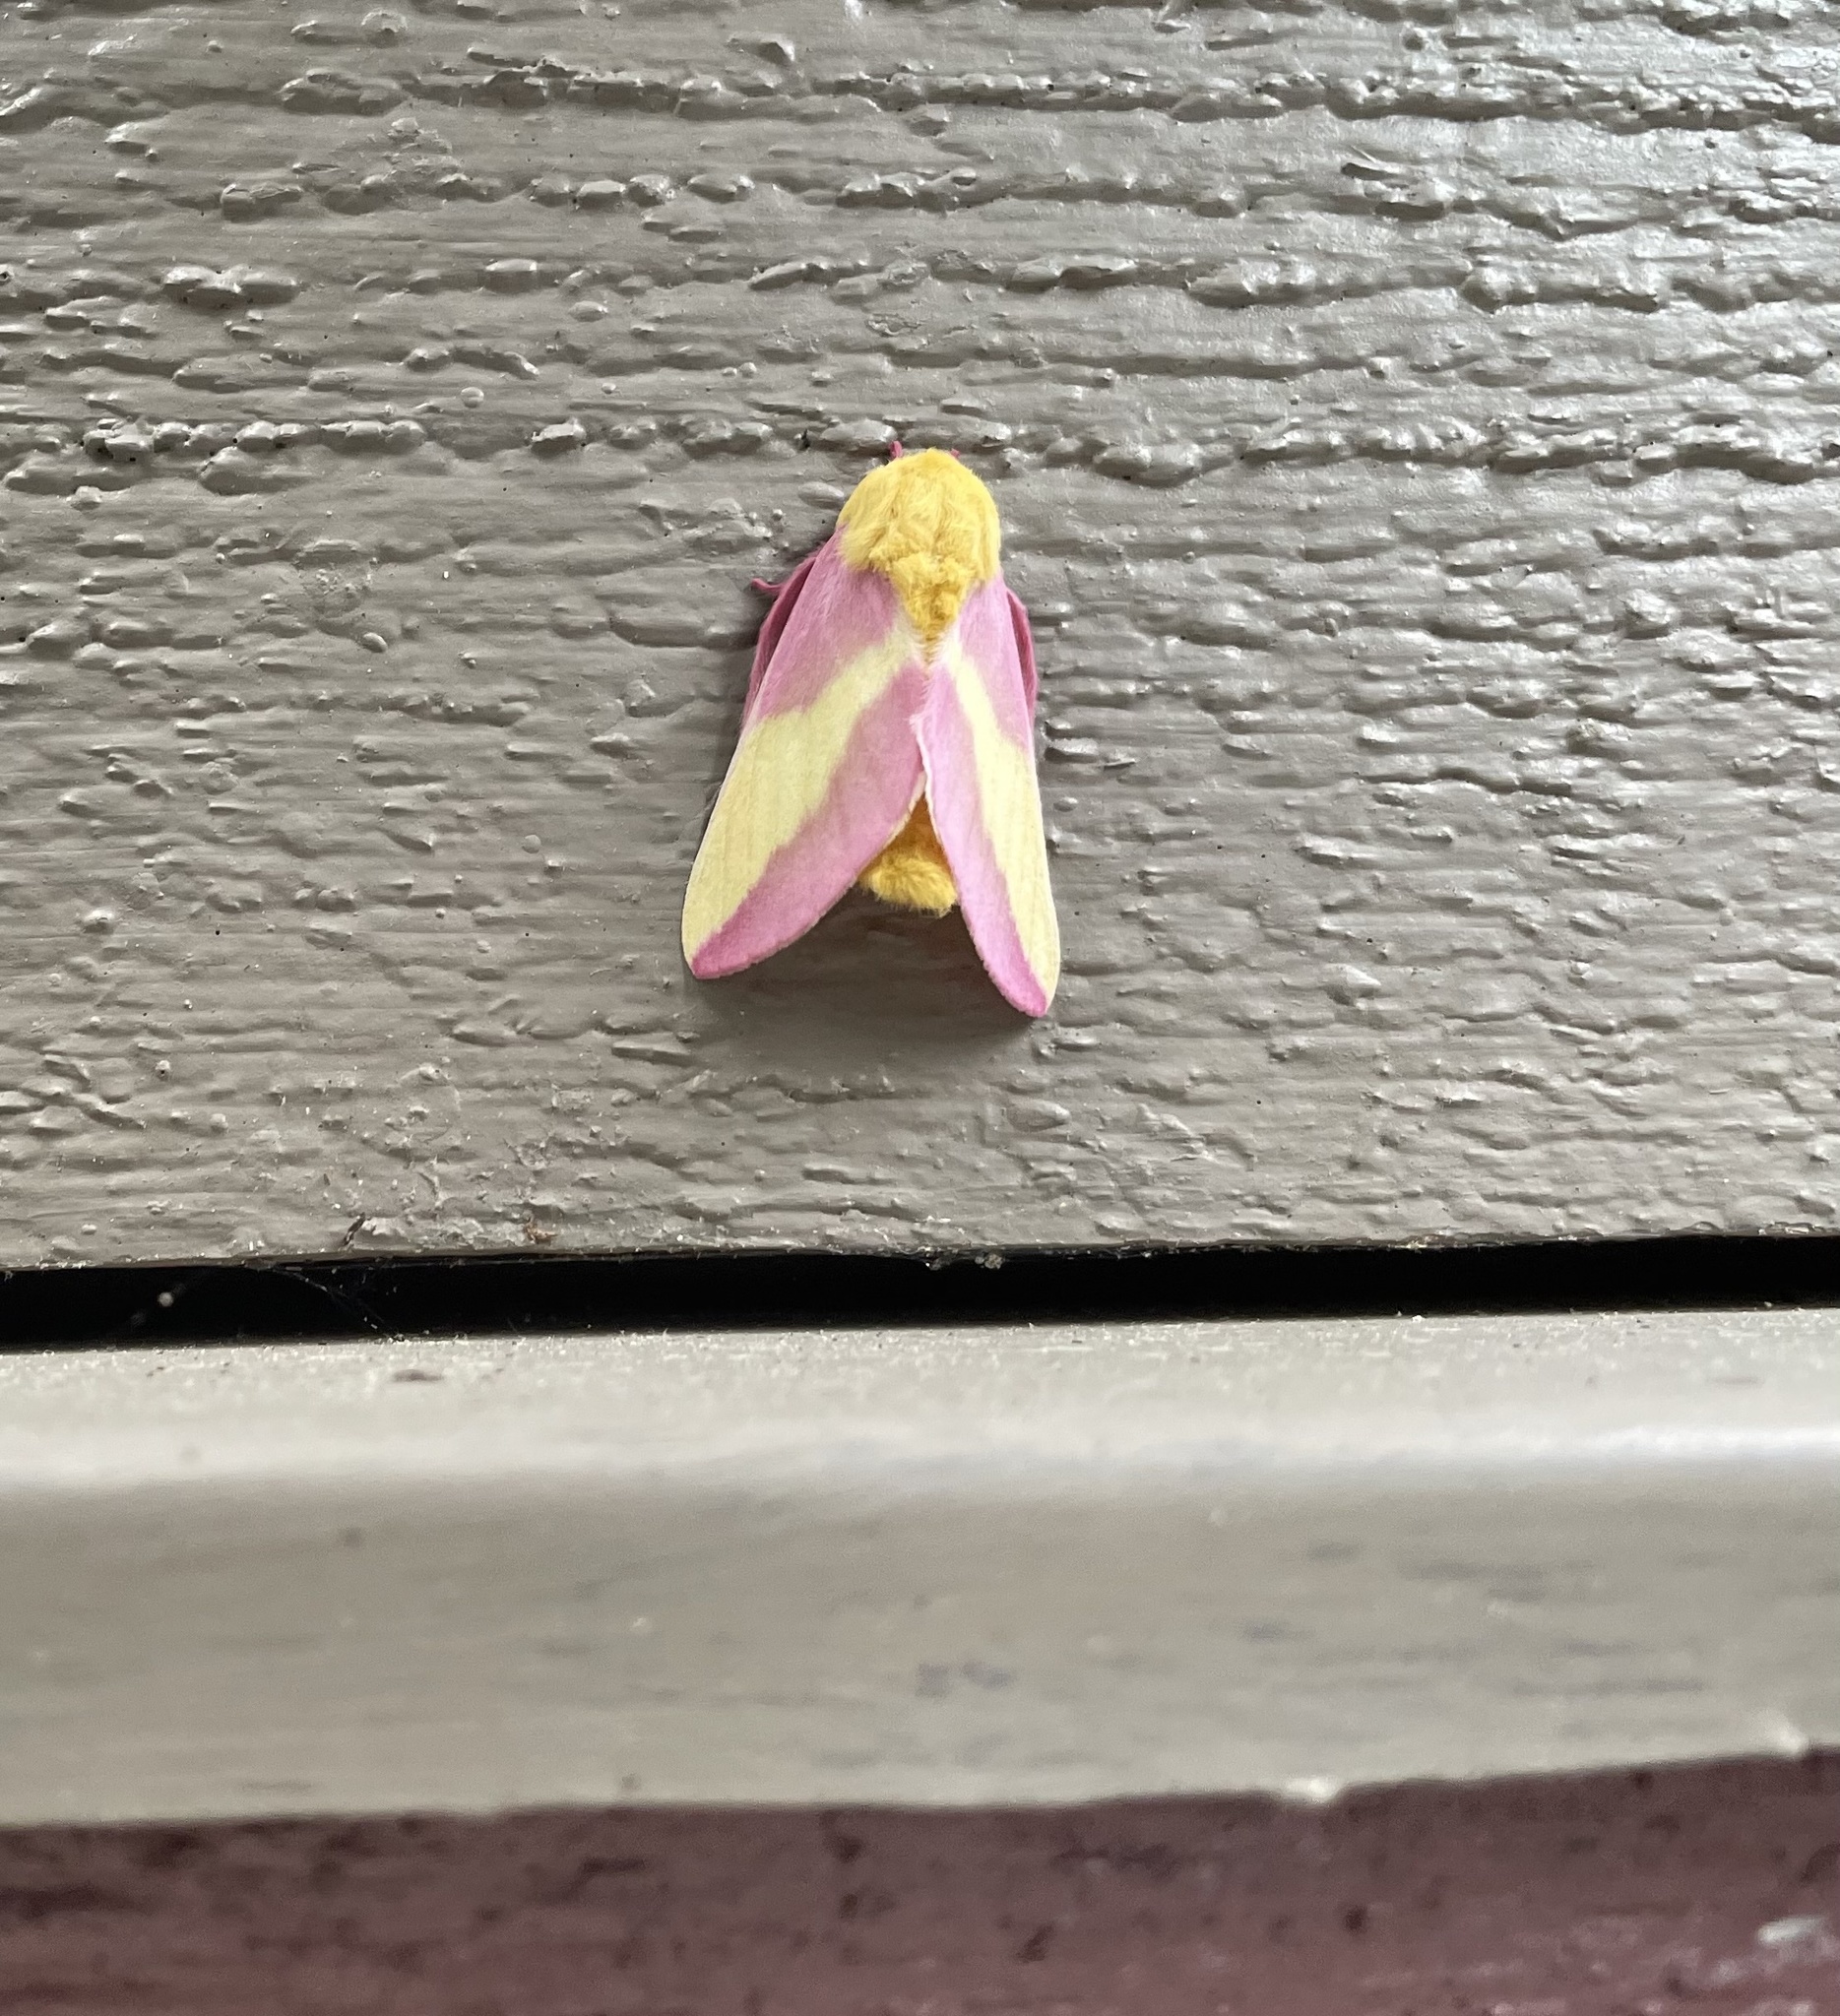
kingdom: Animalia
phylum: Arthropoda
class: Insecta
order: Lepidoptera
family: Saturniidae
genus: Dryocampa
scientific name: Dryocampa rubicunda
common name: Rosy maple moth
